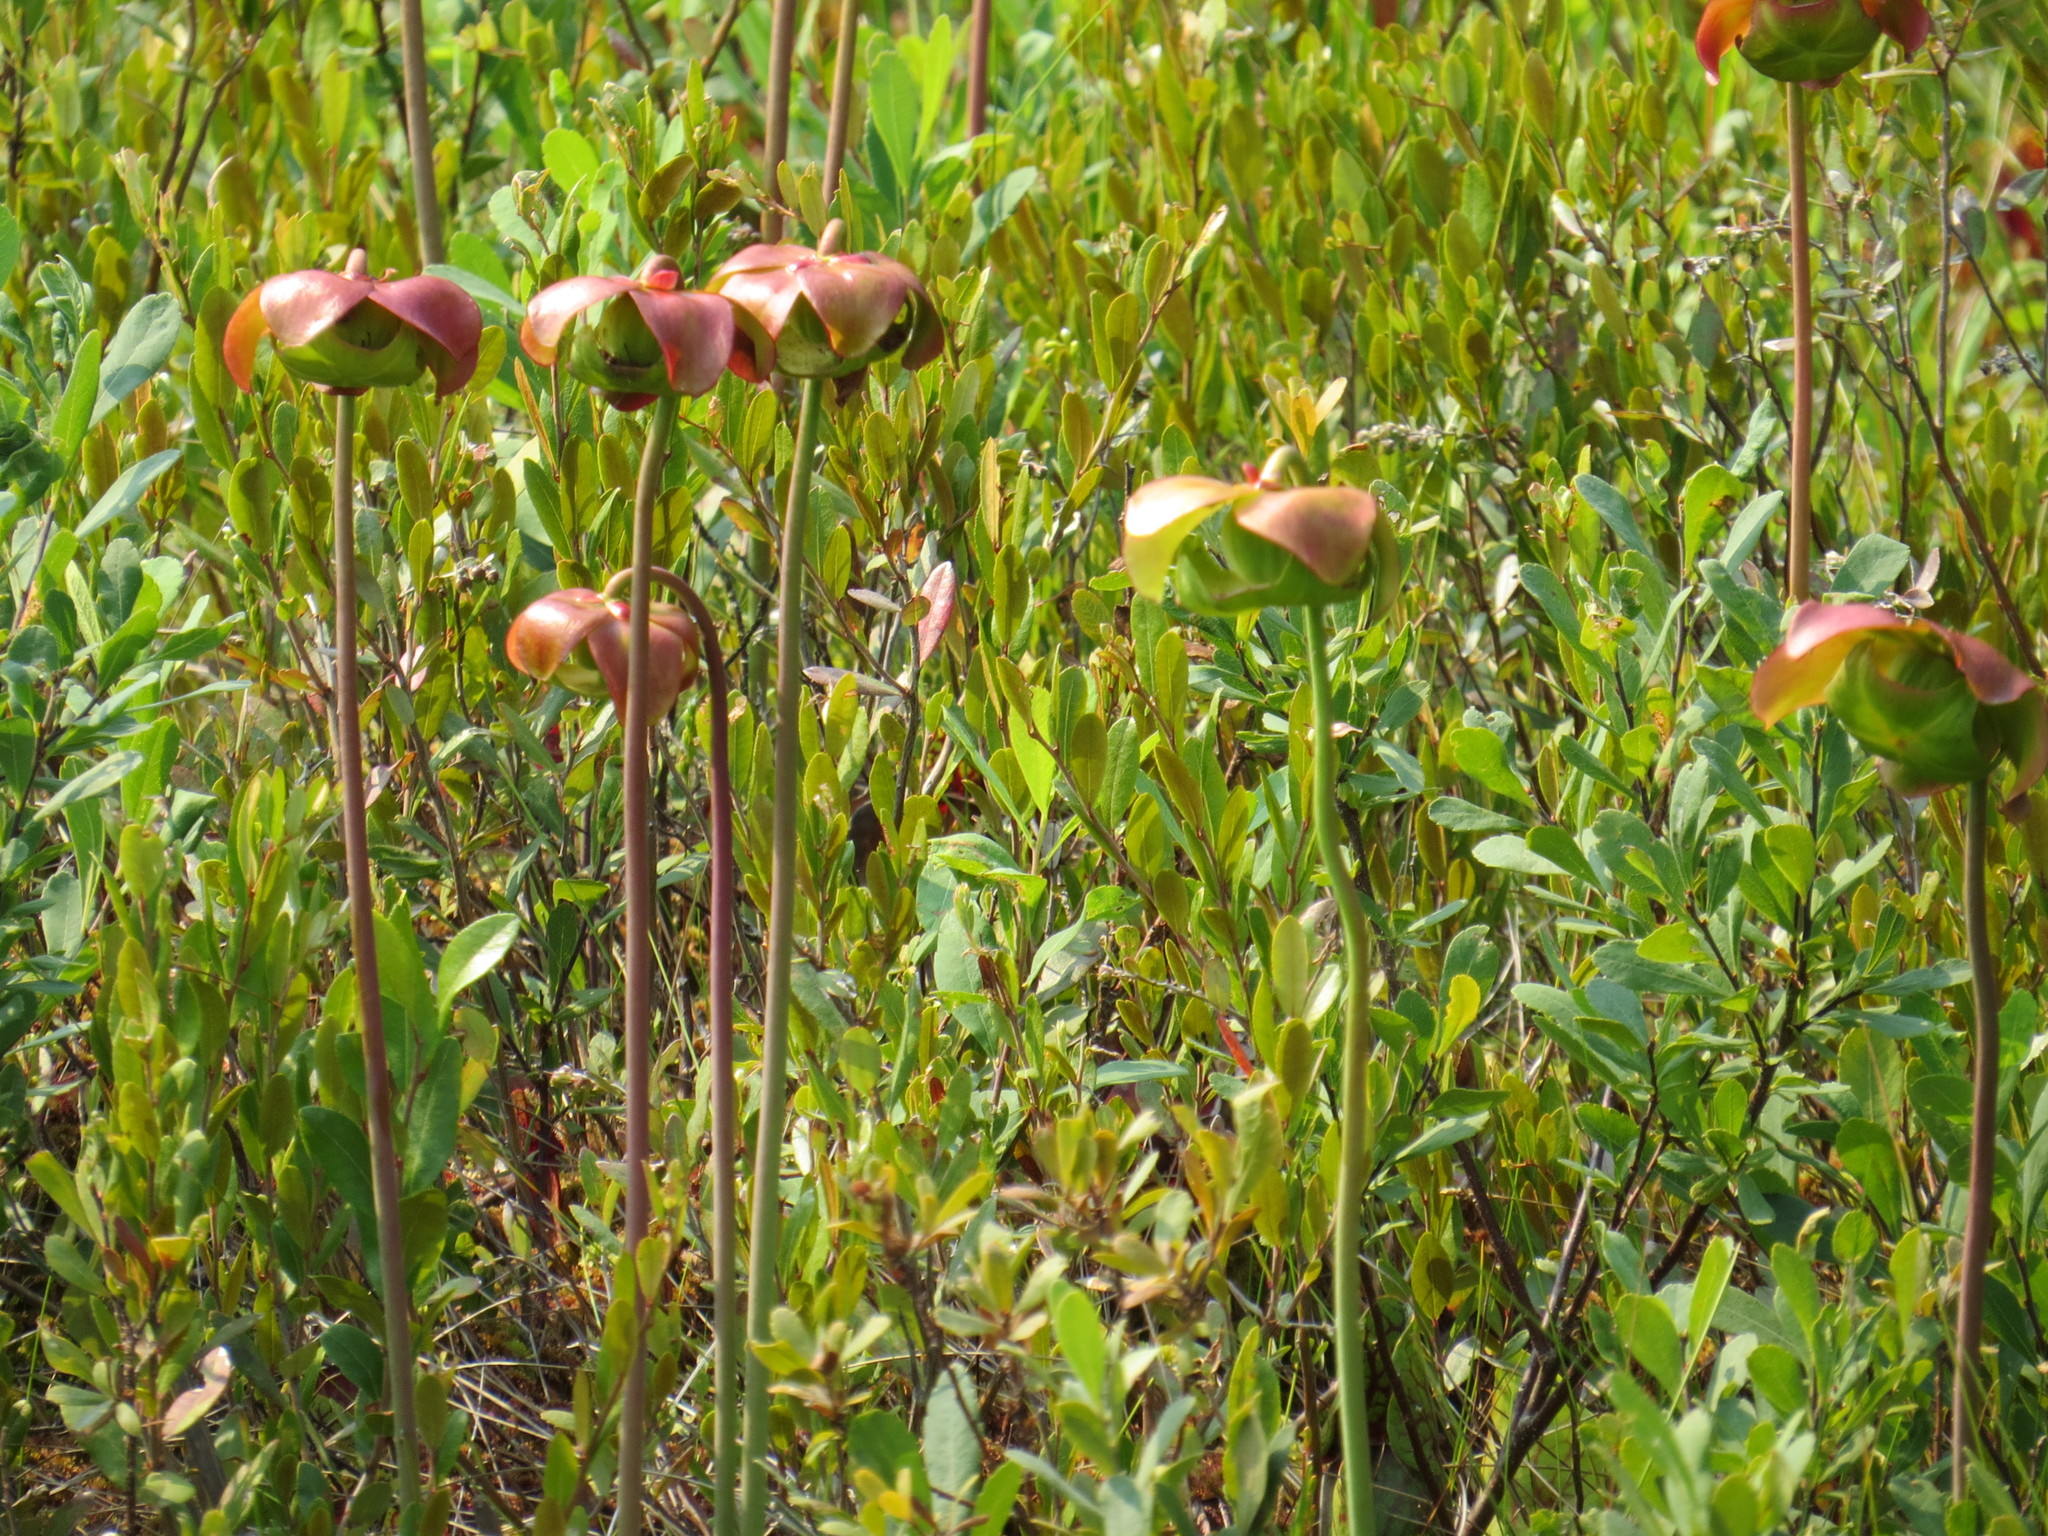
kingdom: Plantae
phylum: Tracheophyta
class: Magnoliopsida
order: Ericales
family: Sarraceniaceae
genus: Sarracenia
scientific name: Sarracenia purpurea
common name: Pitcherplant
